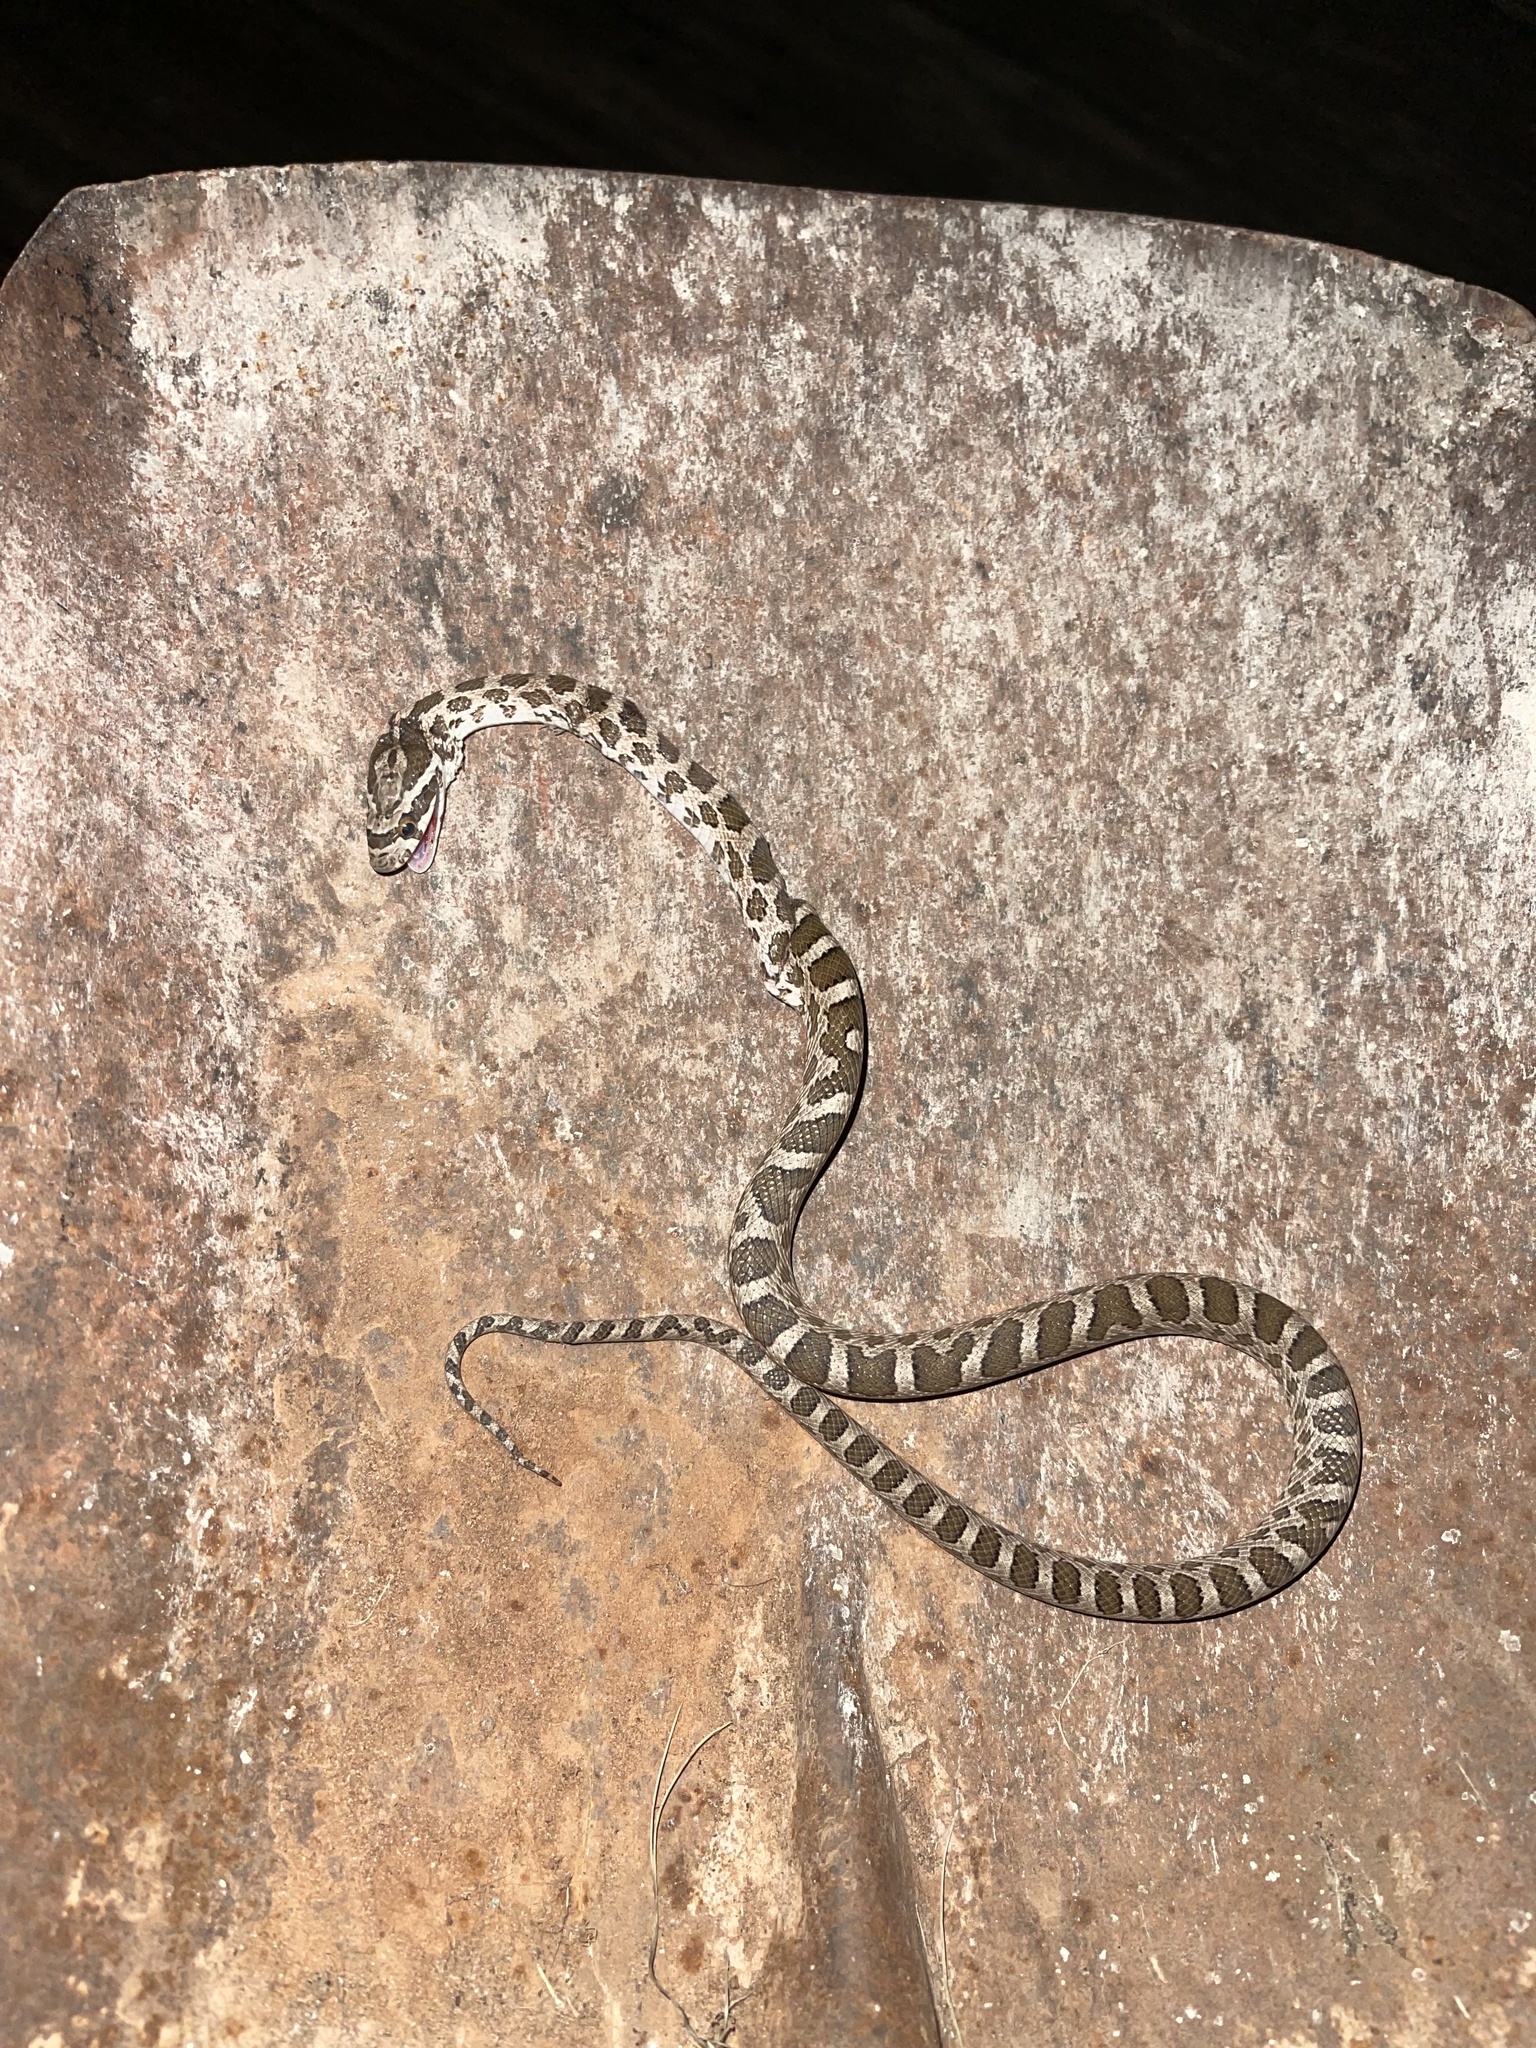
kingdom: Animalia
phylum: Chordata
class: Squamata
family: Colubridae
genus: Pantherophis
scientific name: Pantherophis emoryi
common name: Great plains rat snake
